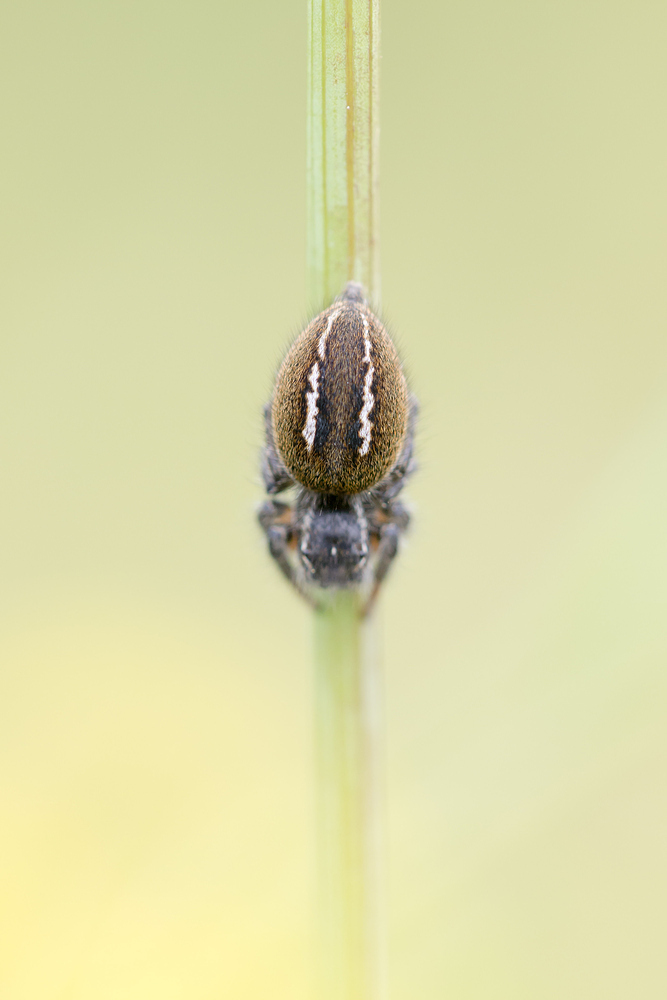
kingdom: Animalia
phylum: Arthropoda
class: Arachnida
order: Araneae
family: Salticidae
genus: Philaeus
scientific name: Philaeus chrysops
